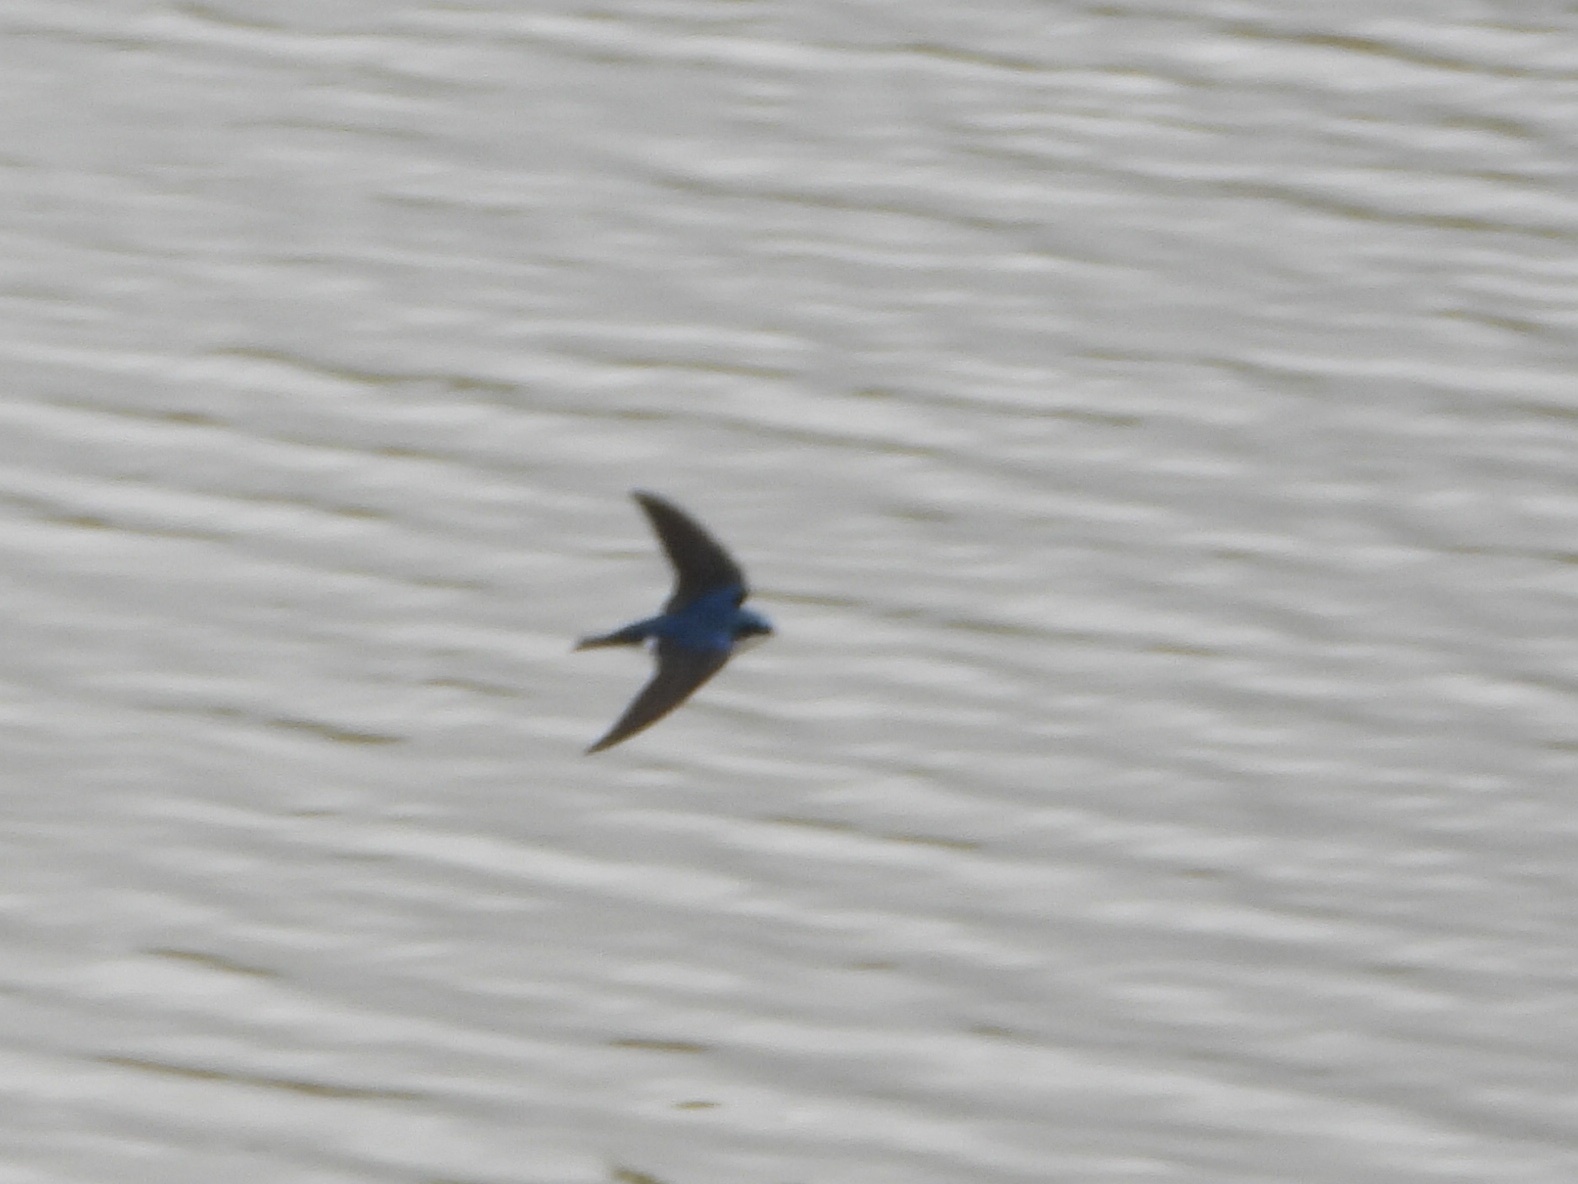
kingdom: Animalia
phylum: Chordata
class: Aves
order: Passeriformes
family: Hirundinidae
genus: Tachycineta
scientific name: Tachycineta bicolor
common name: Tree swallow
